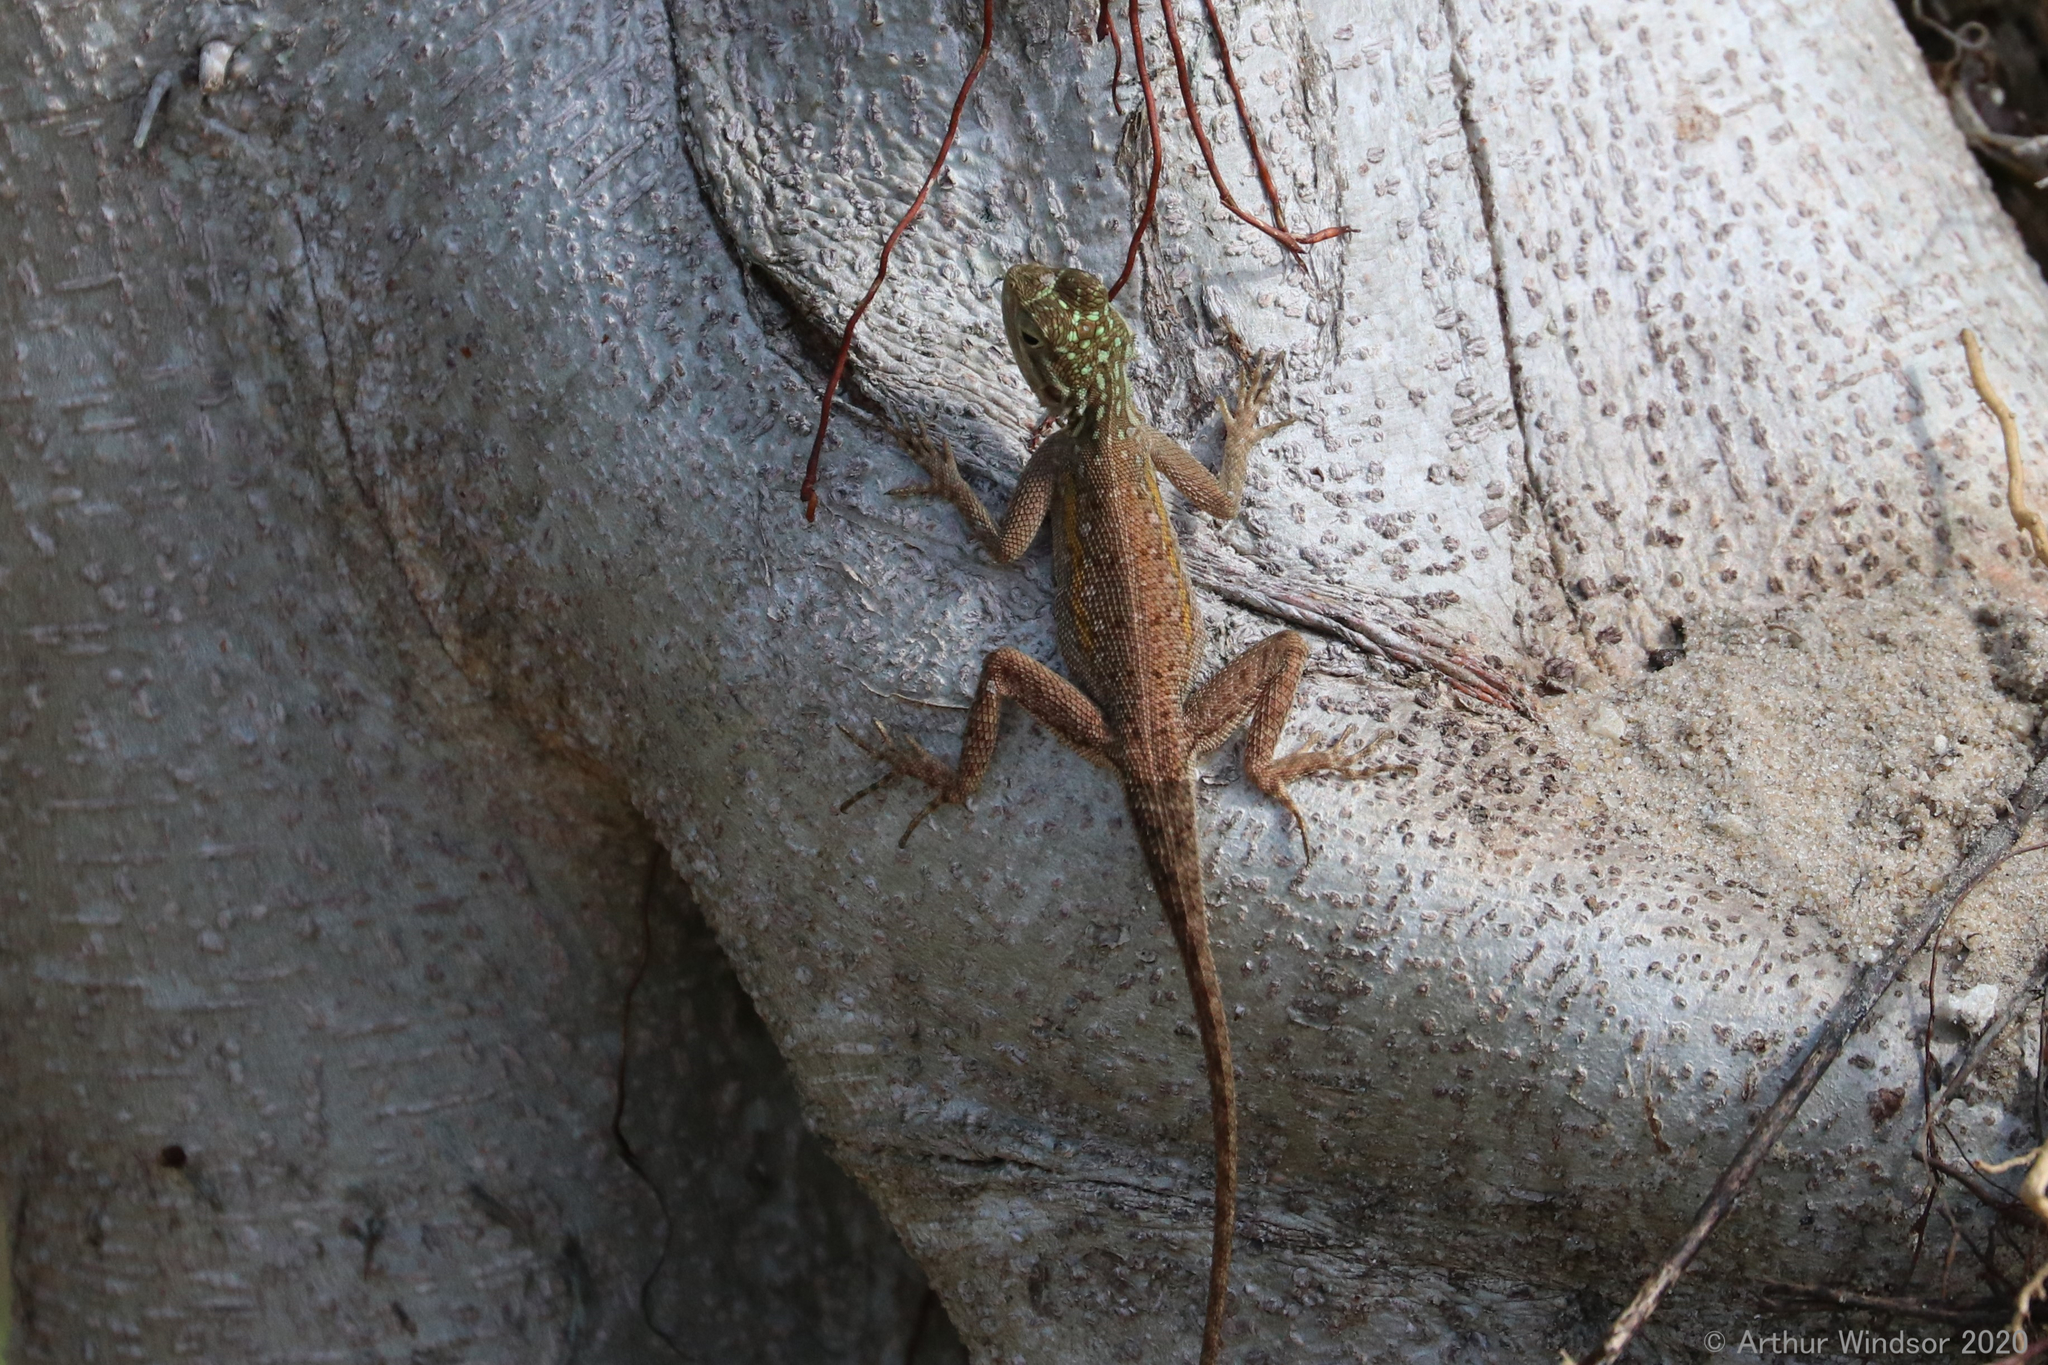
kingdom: Animalia
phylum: Chordata
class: Squamata
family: Agamidae
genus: Agama
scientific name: Agama picticauda
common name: Red-headed agama
